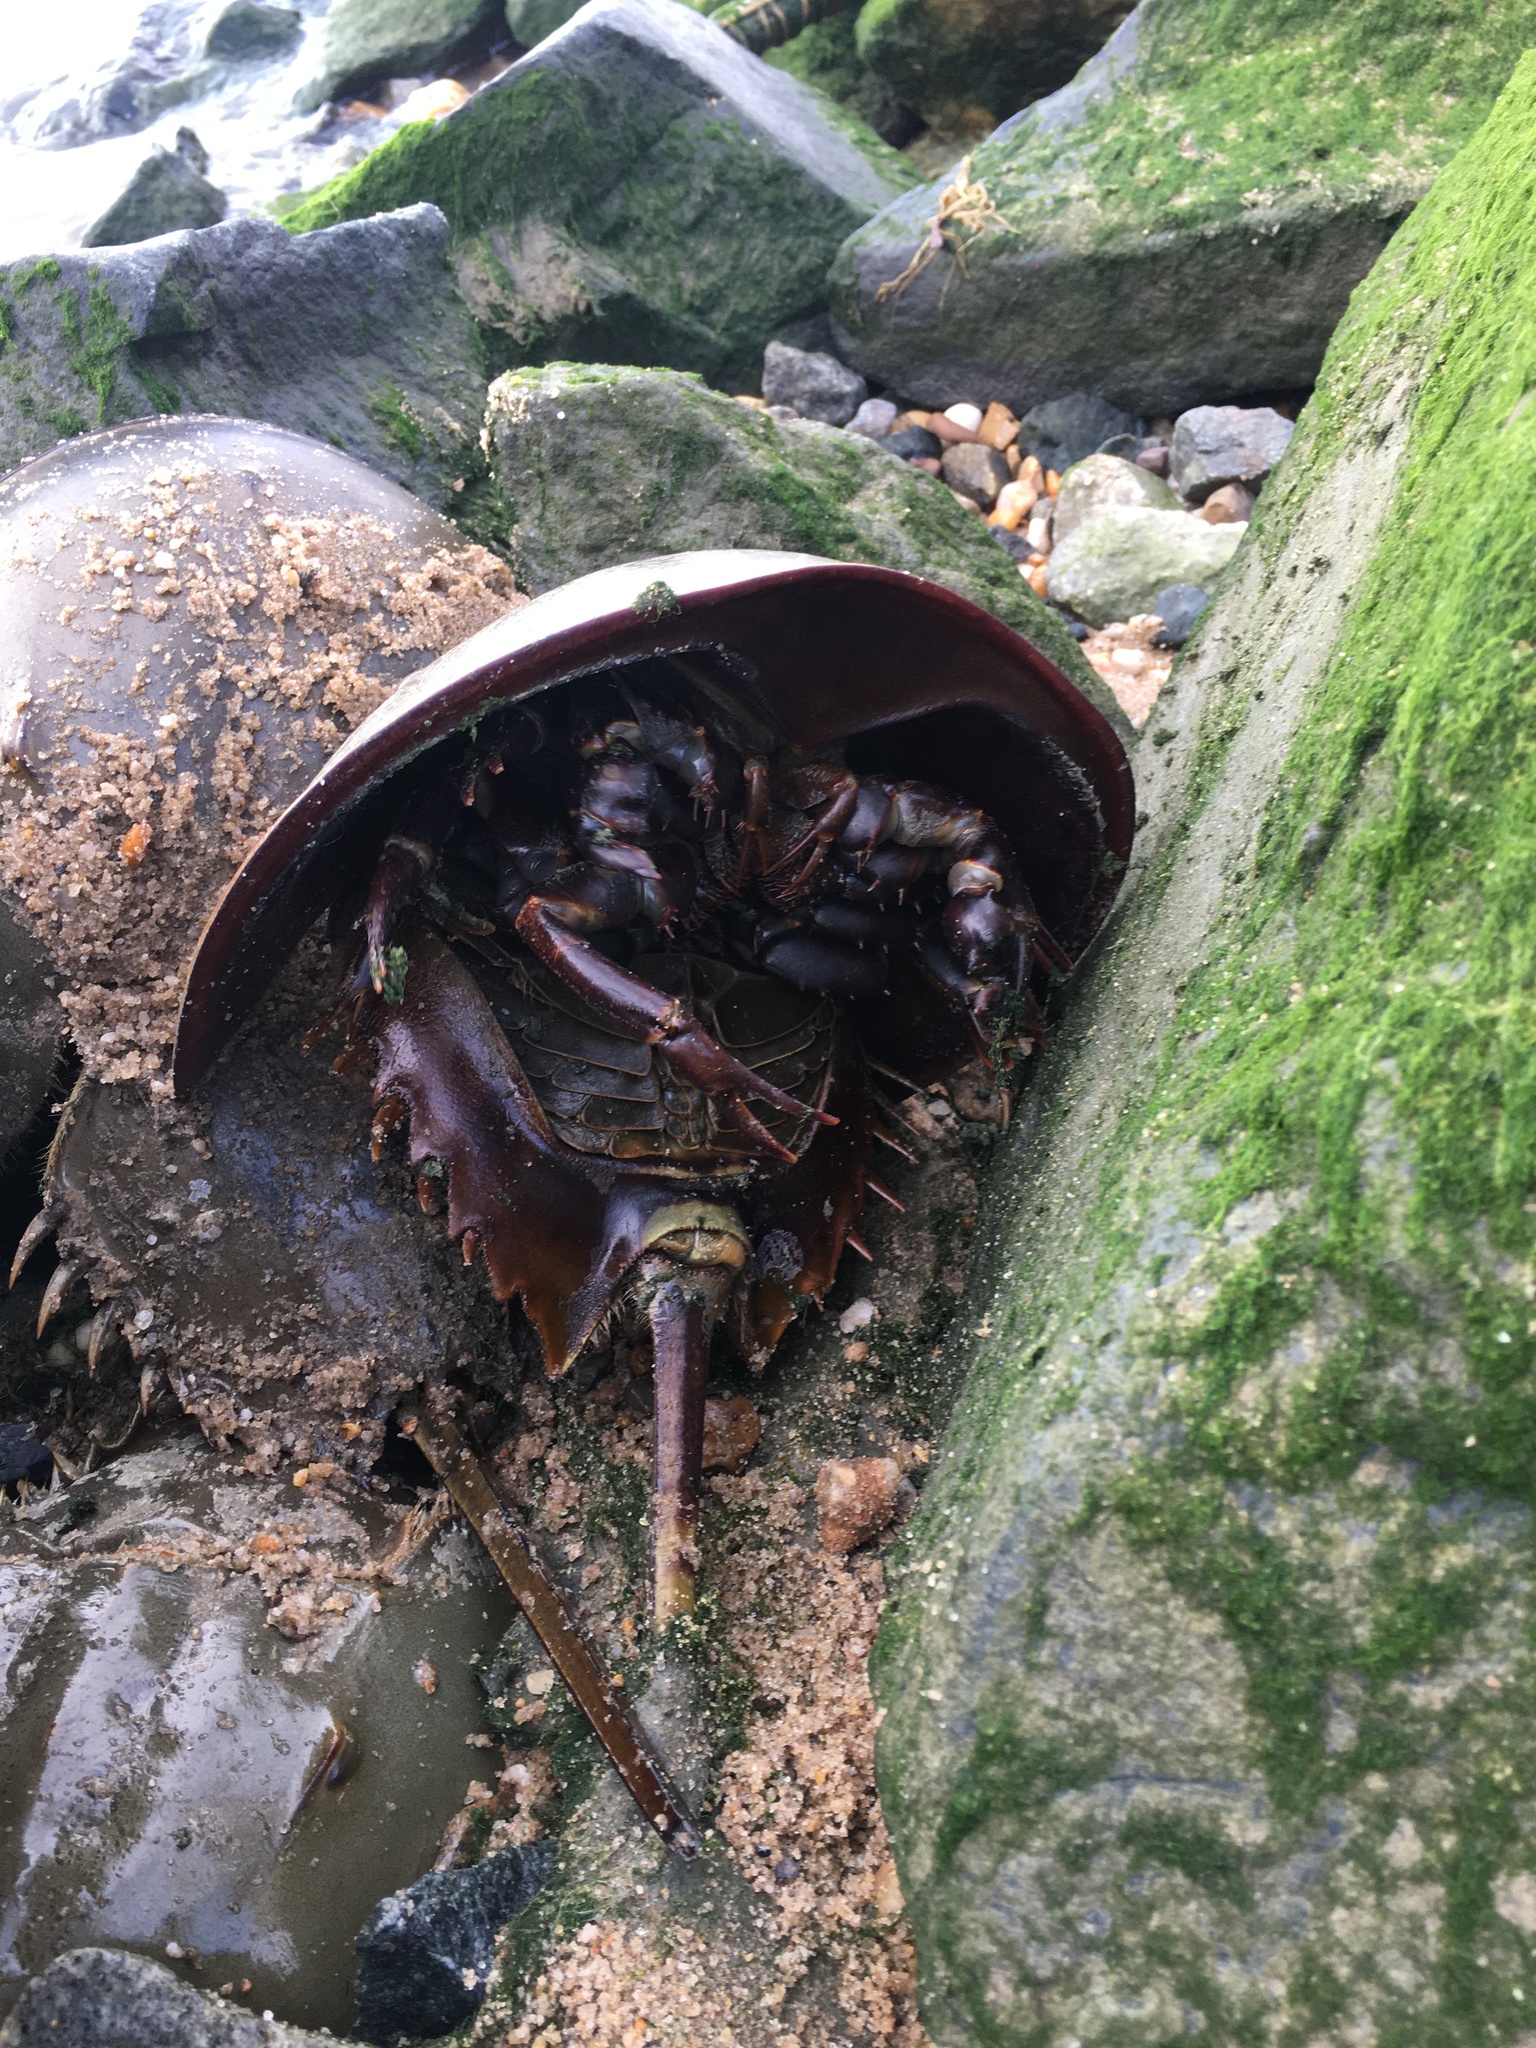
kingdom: Animalia
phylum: Arthropoda
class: Merostomata
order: Xiphosurida
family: Limulidae
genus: Limulus
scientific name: Limulus polyphemus
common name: Horseshoe crab
